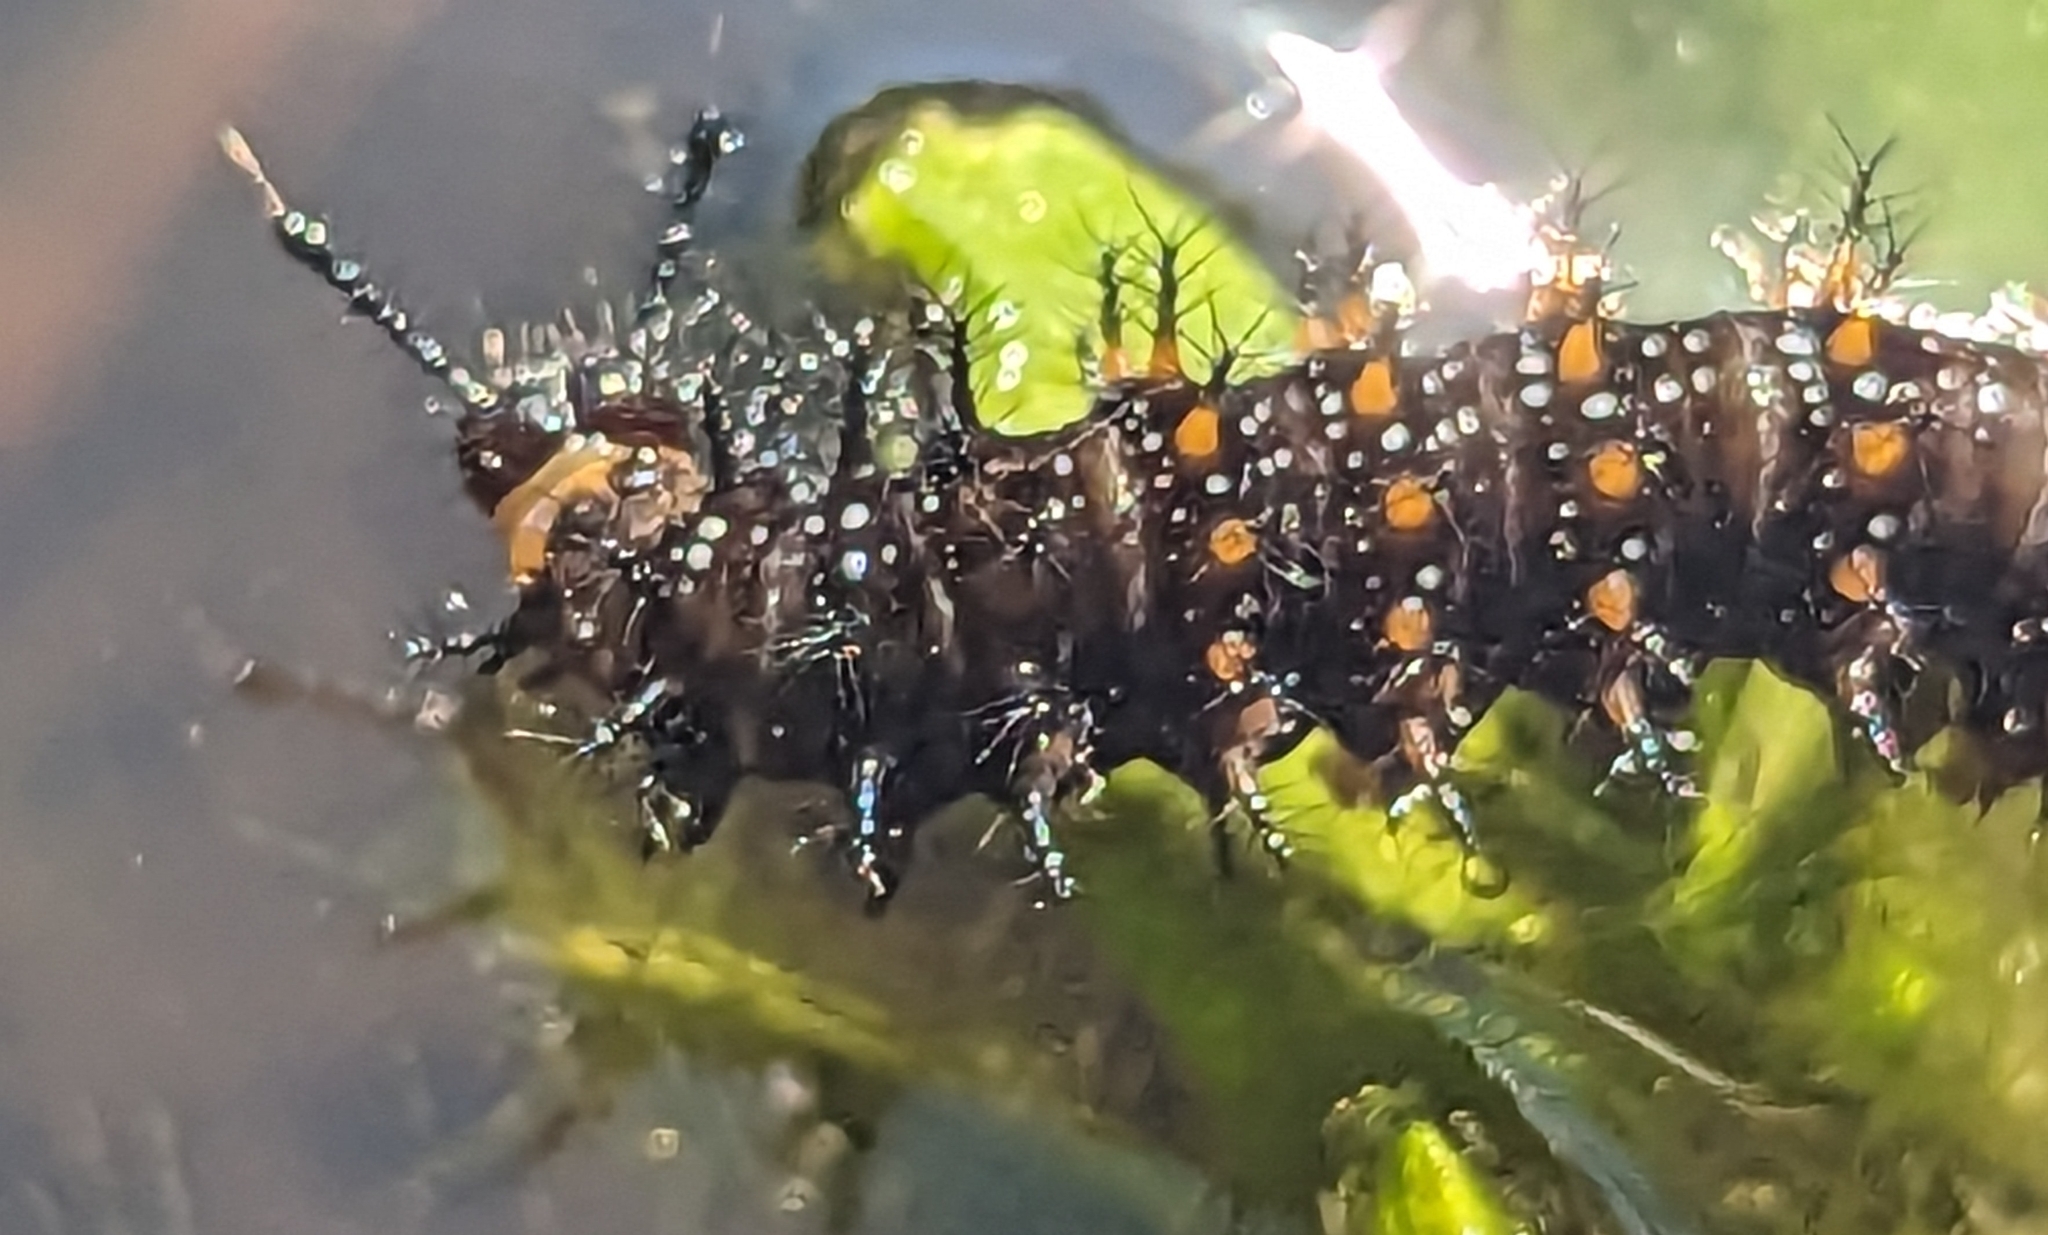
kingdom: Animalia
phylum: Arthropoda
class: Insecta
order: Lepidoptera
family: Nymphalidae
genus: Anartia
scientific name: Anartia jatrophae
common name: White peacock
